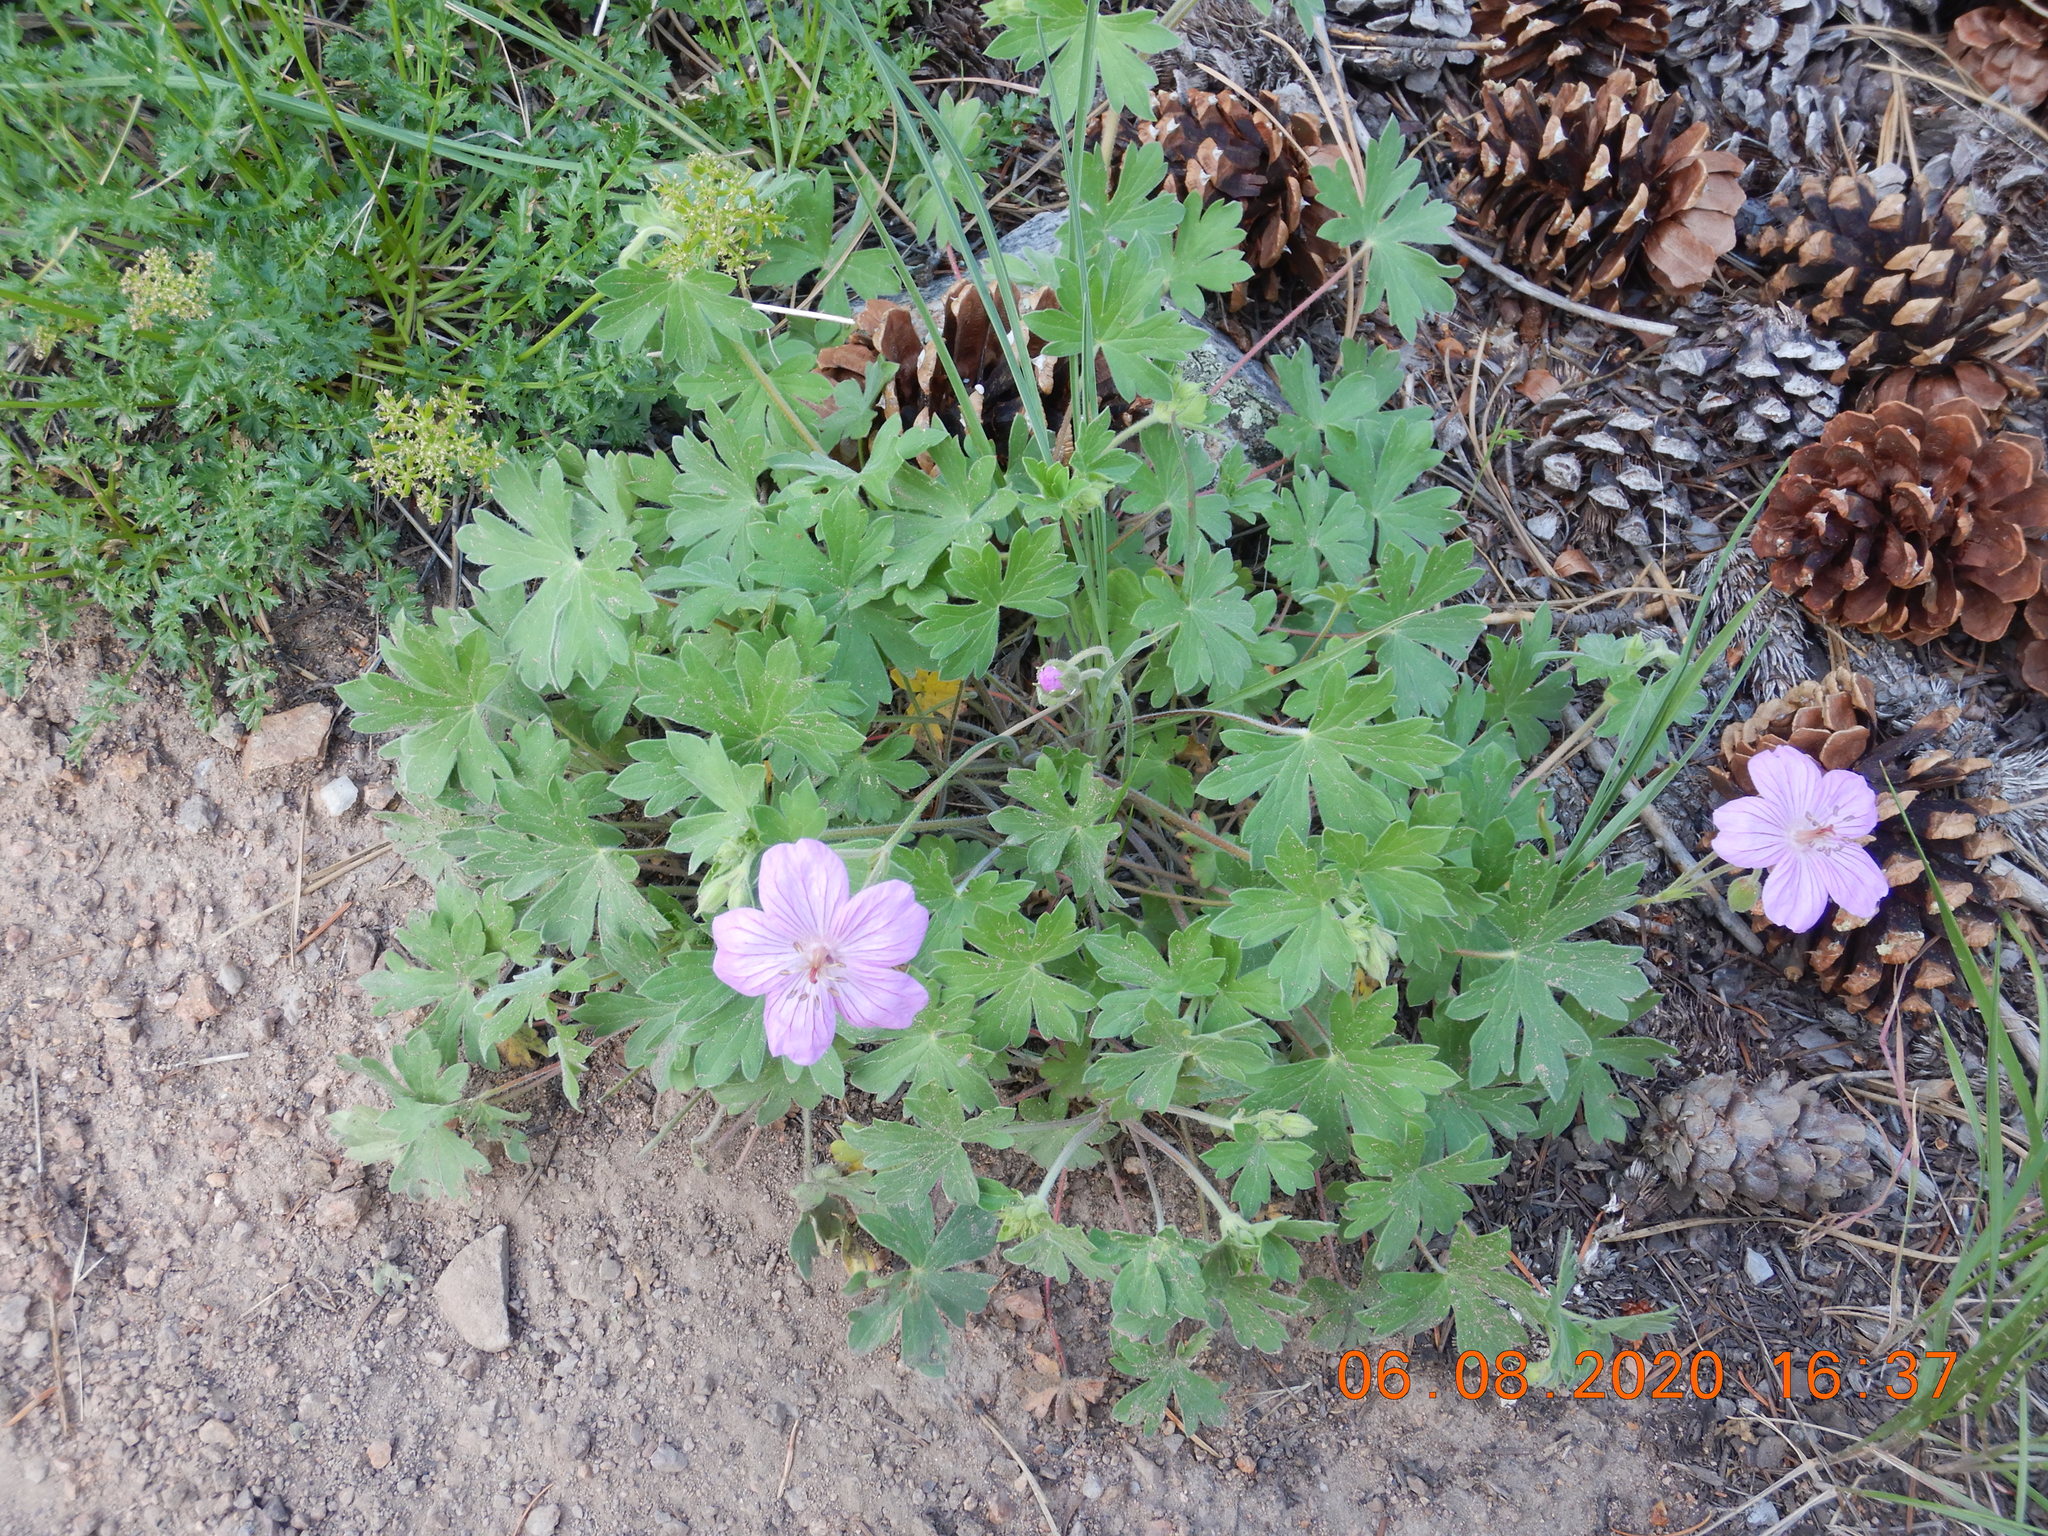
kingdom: Plantae
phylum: Tracheophyta
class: Magnoliopsida
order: Geraniales
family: Geraniaceae
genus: Geranium
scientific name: Geranium caespitosum
